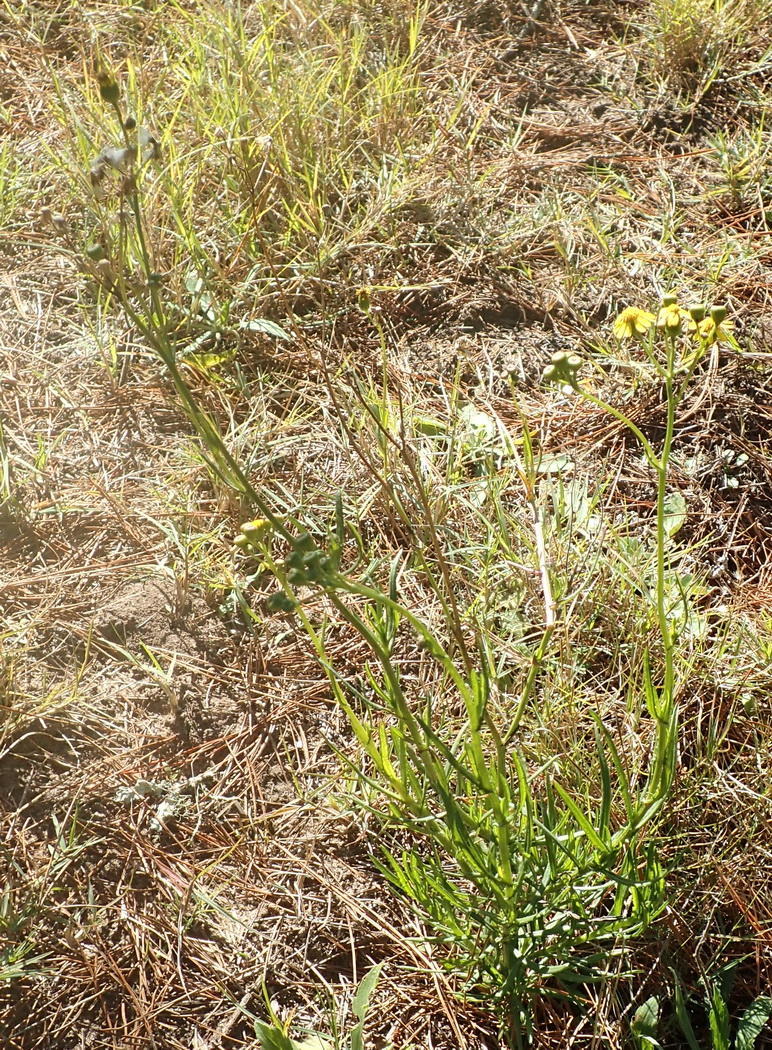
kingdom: Plantae
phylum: Tracheophyta
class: Magnoliopsida
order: Asterales
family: Asteraceae
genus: Senecio
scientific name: Senecio burchellii
